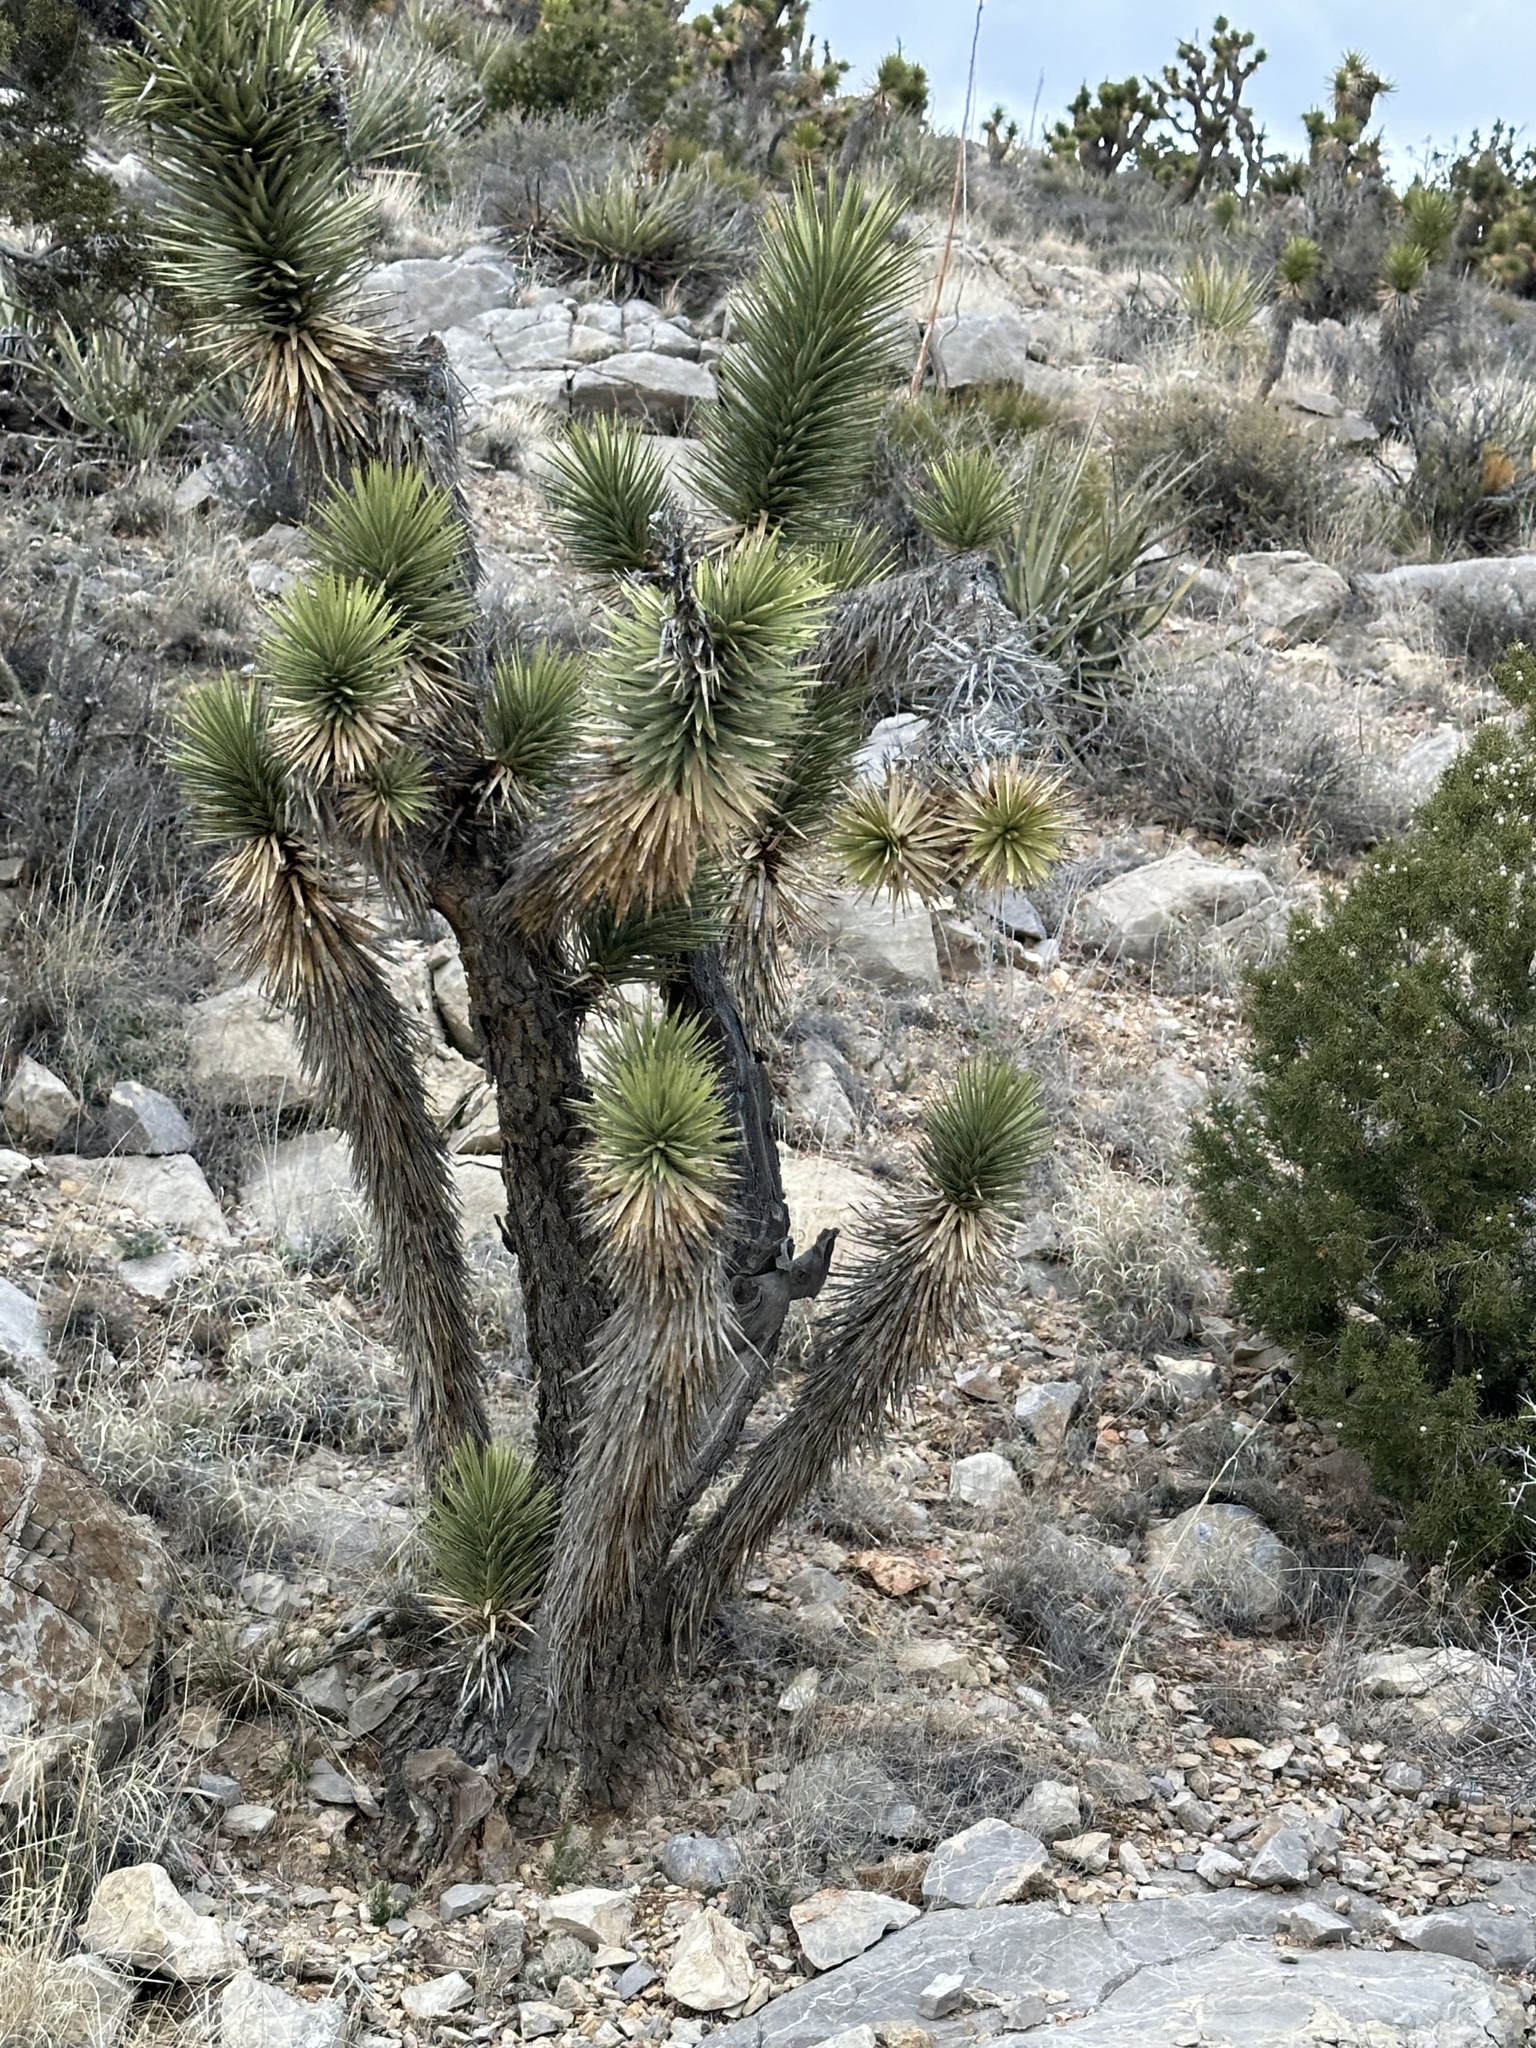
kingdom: Plantae
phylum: Tracheophyta
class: Liliopsida
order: Asparagales
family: Asparagaceae
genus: Yucca
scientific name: Yucca brevifolia
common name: Joshua tree
